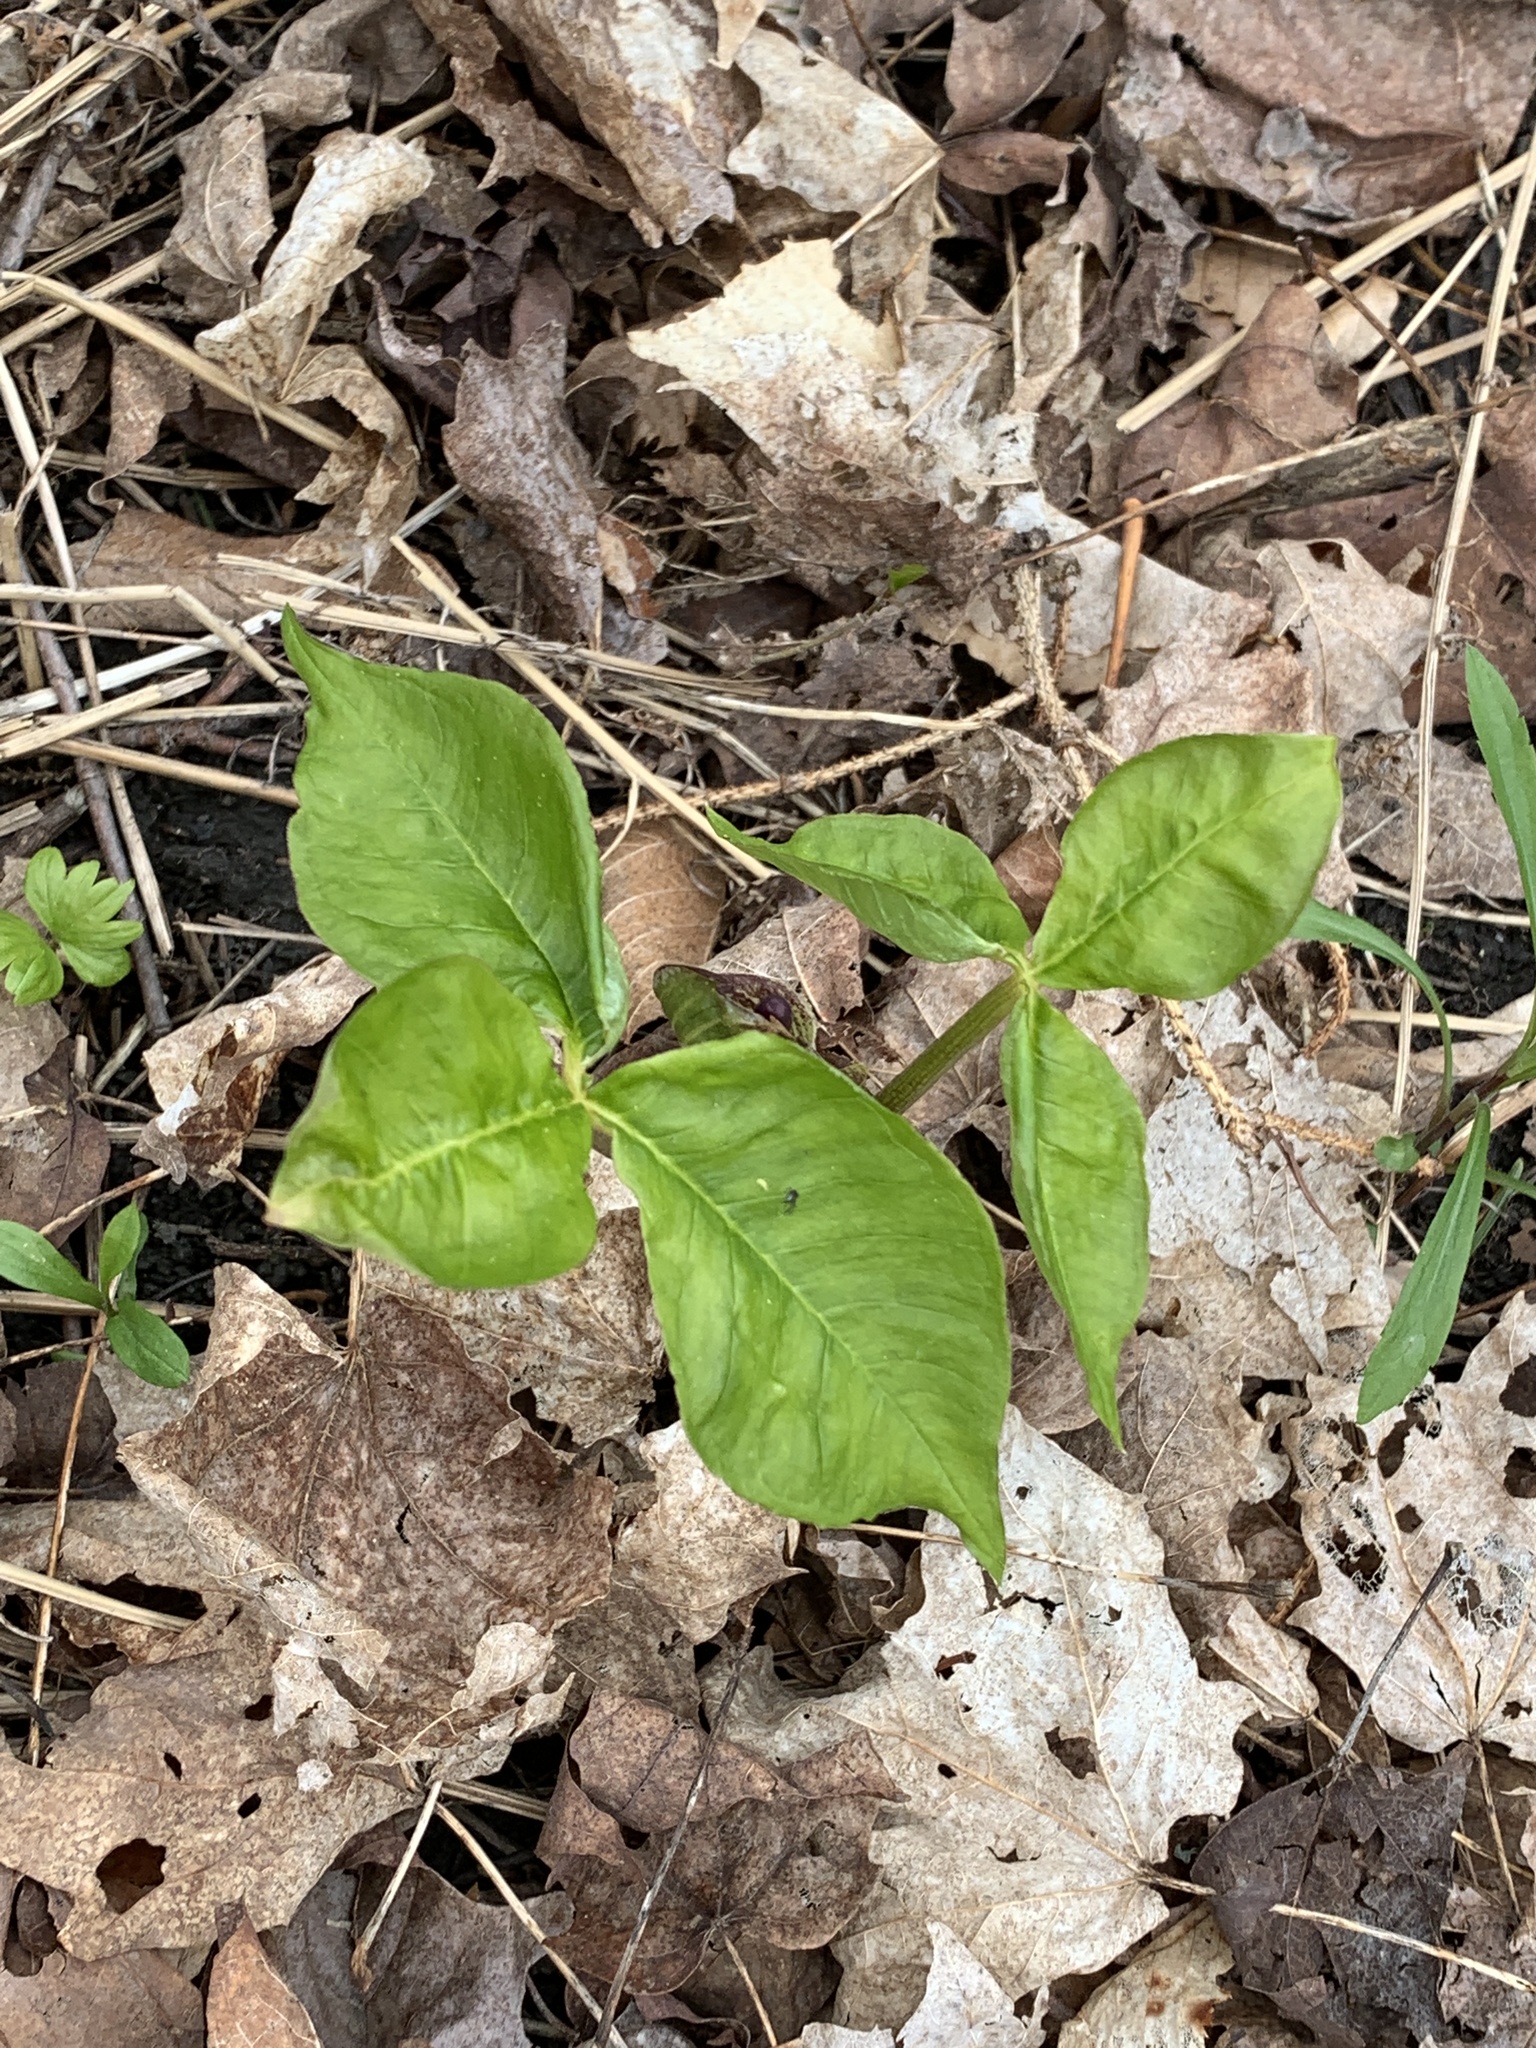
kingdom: Plantae
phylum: Tracheophyta
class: Liliopsida
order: Alismatales
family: Araceae
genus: Arisaema
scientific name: Arisaema triphyllum
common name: Jack-in-the-pulpit
